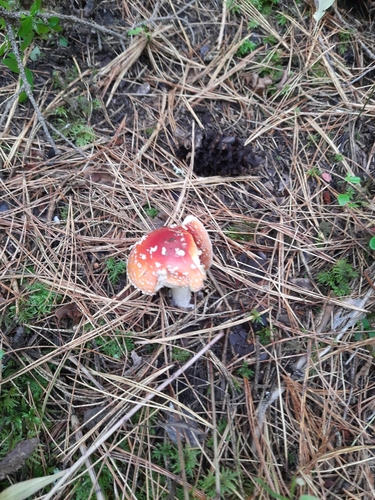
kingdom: Fungi
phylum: Basidiomycota
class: Agaricomycetes
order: Agaricales
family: Amanitaceae
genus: Amanita
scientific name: Amanita muscaria
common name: Fly agaric
